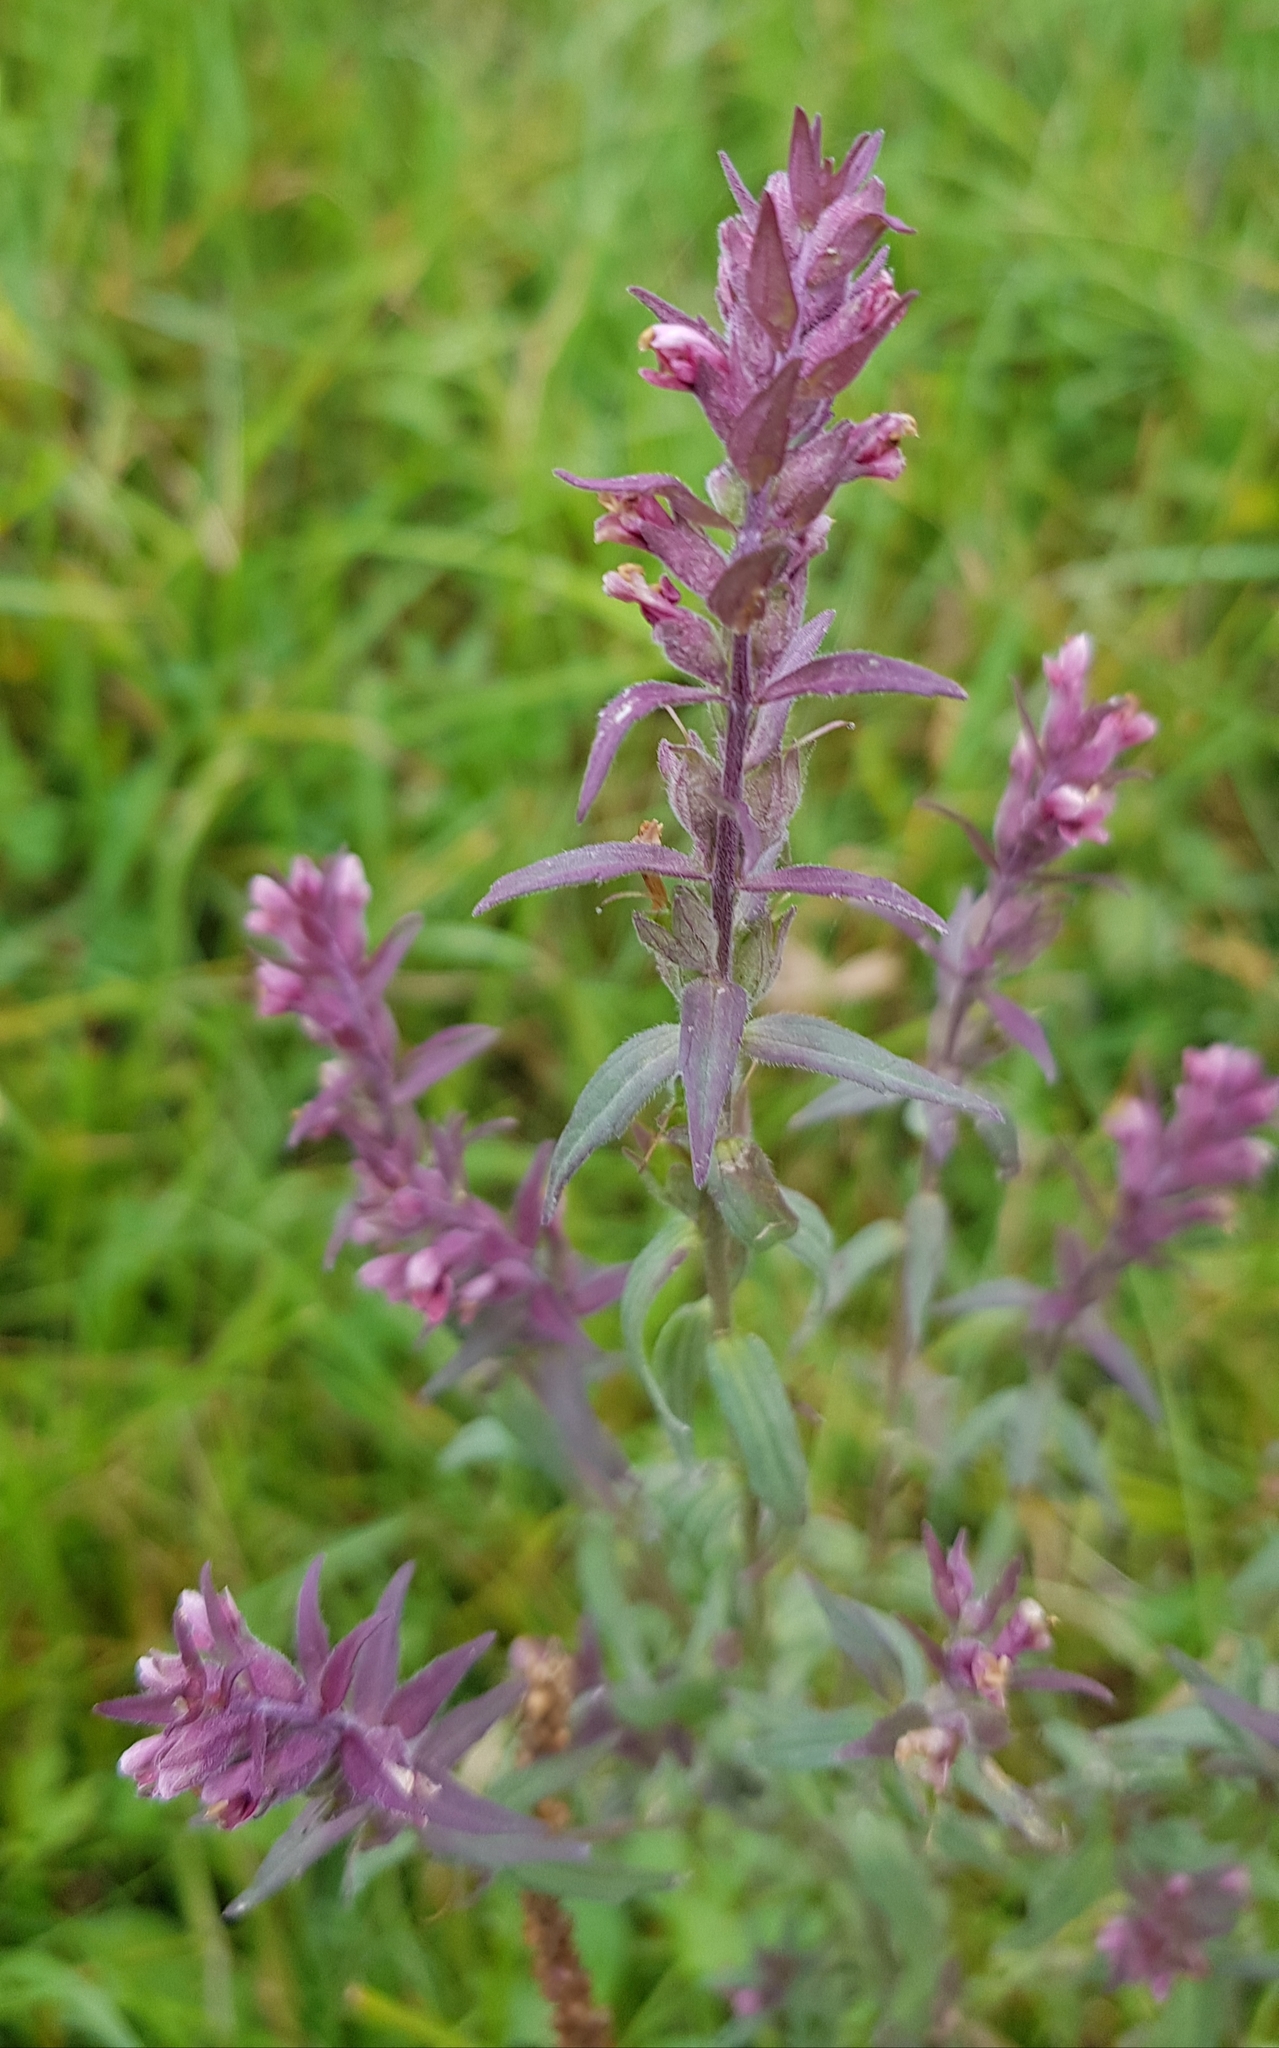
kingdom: Plantae
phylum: Tracheophyta
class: Magnoliopsida
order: Lamiales
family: Orobanchaceae
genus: Odontites
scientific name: Odontites vulgaris
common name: Broomrape
